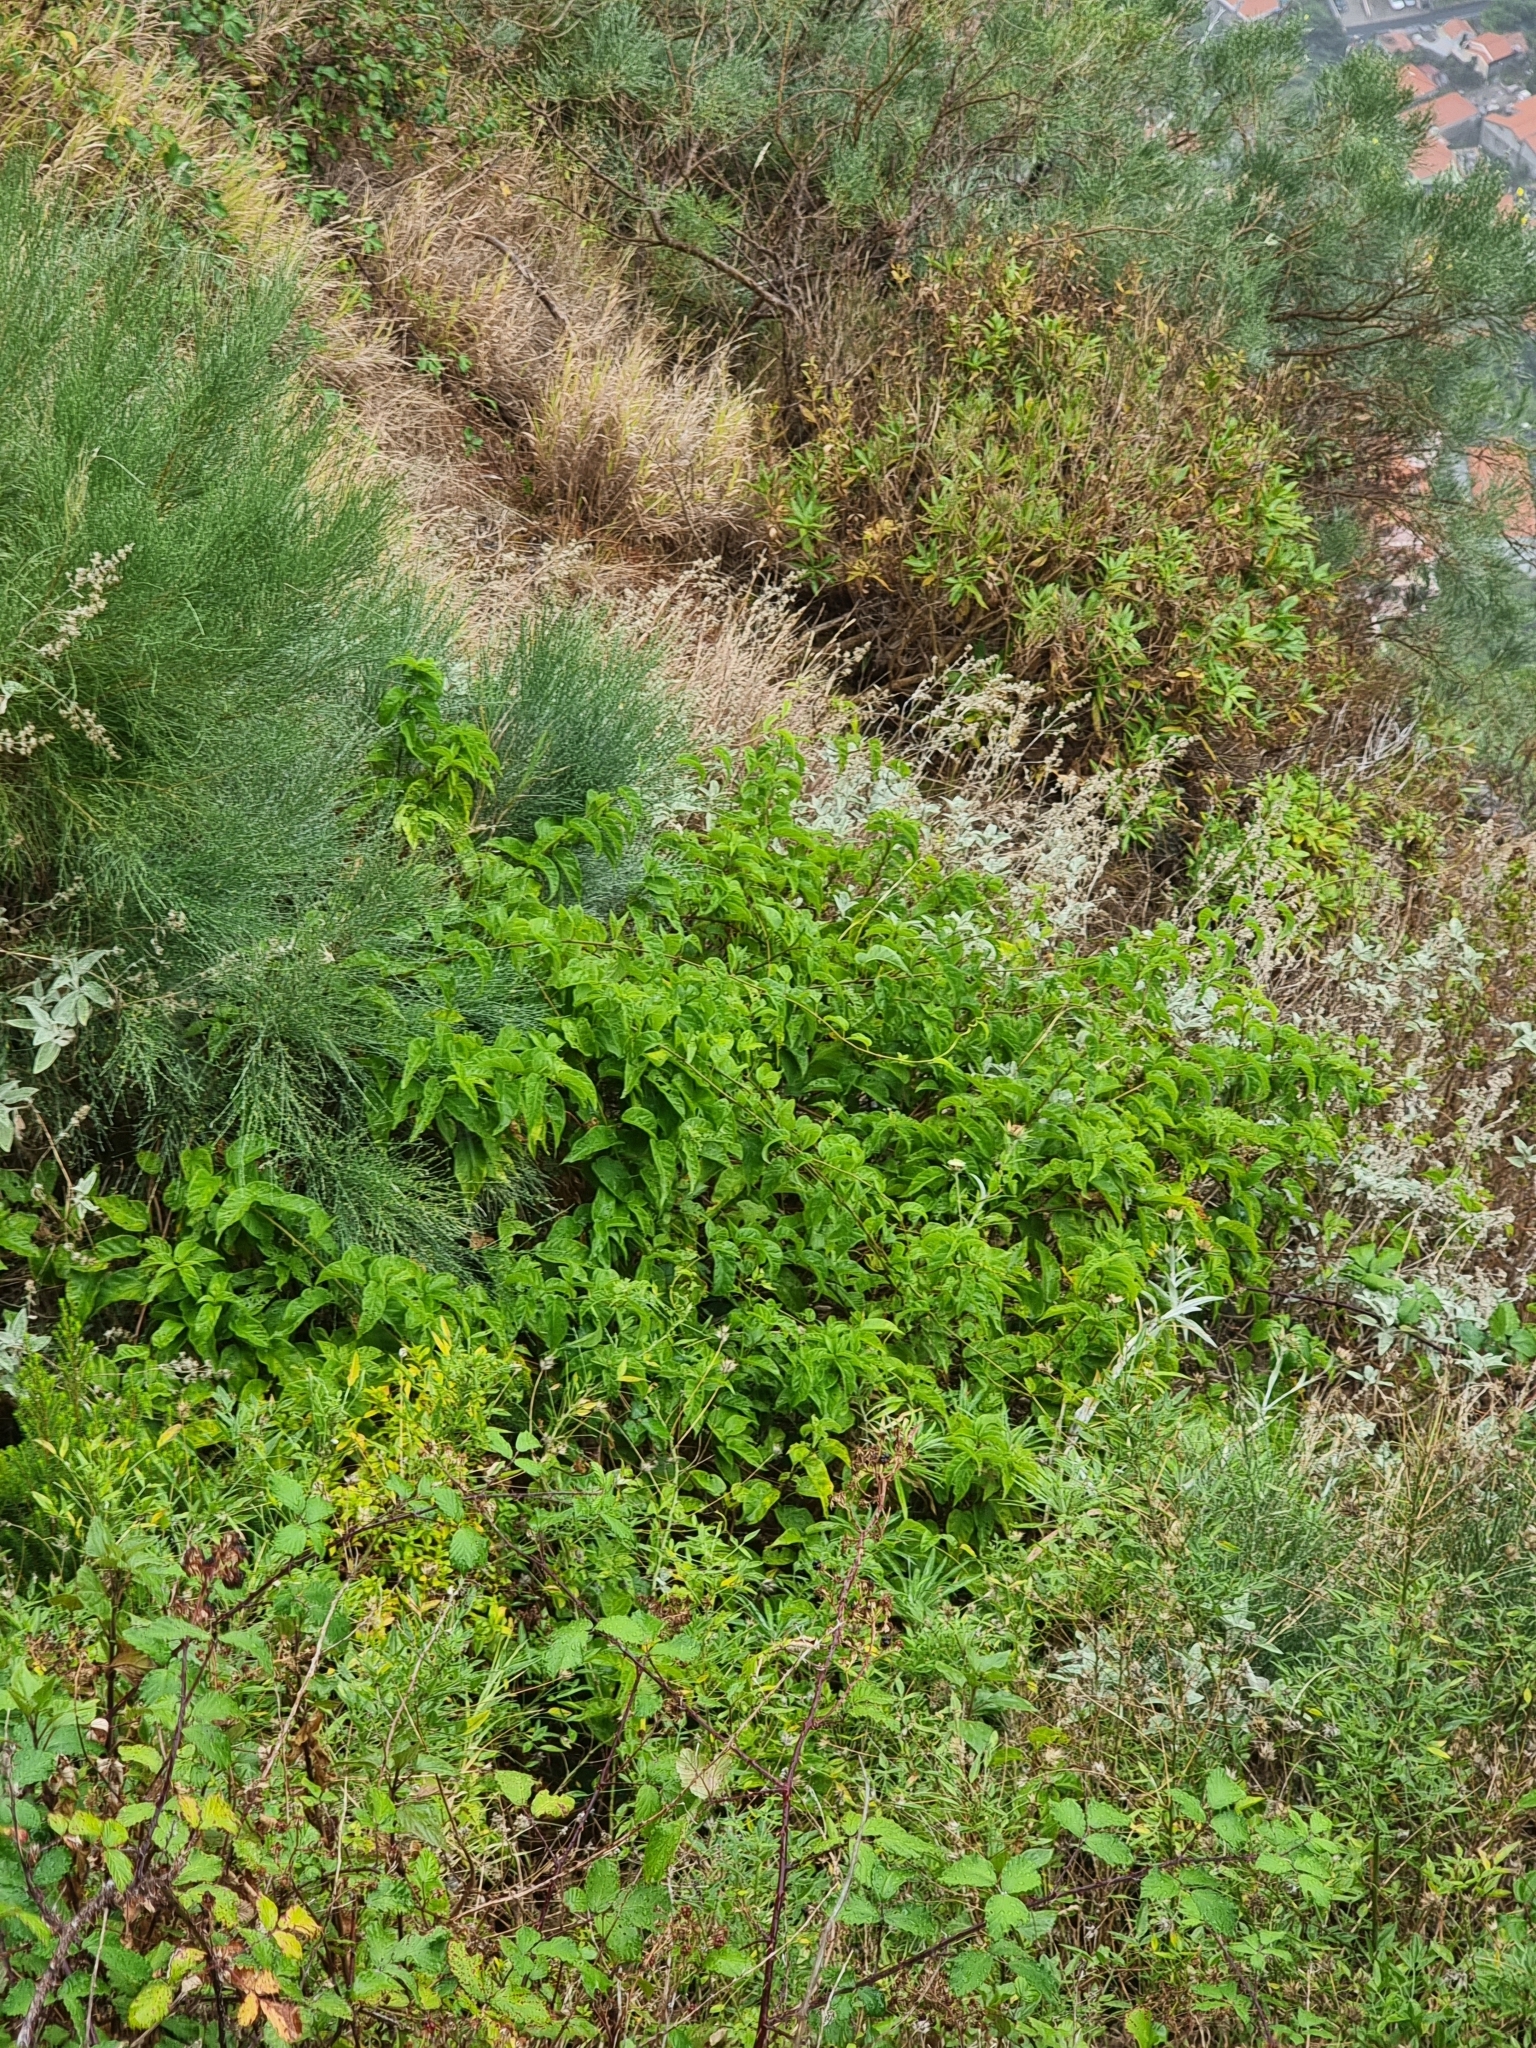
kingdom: Plantae
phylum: Tracheophyta
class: Magnoliopsida
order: Solanales
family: Convolvulaceae
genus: Convolvulus
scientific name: Convolvulus massonii
